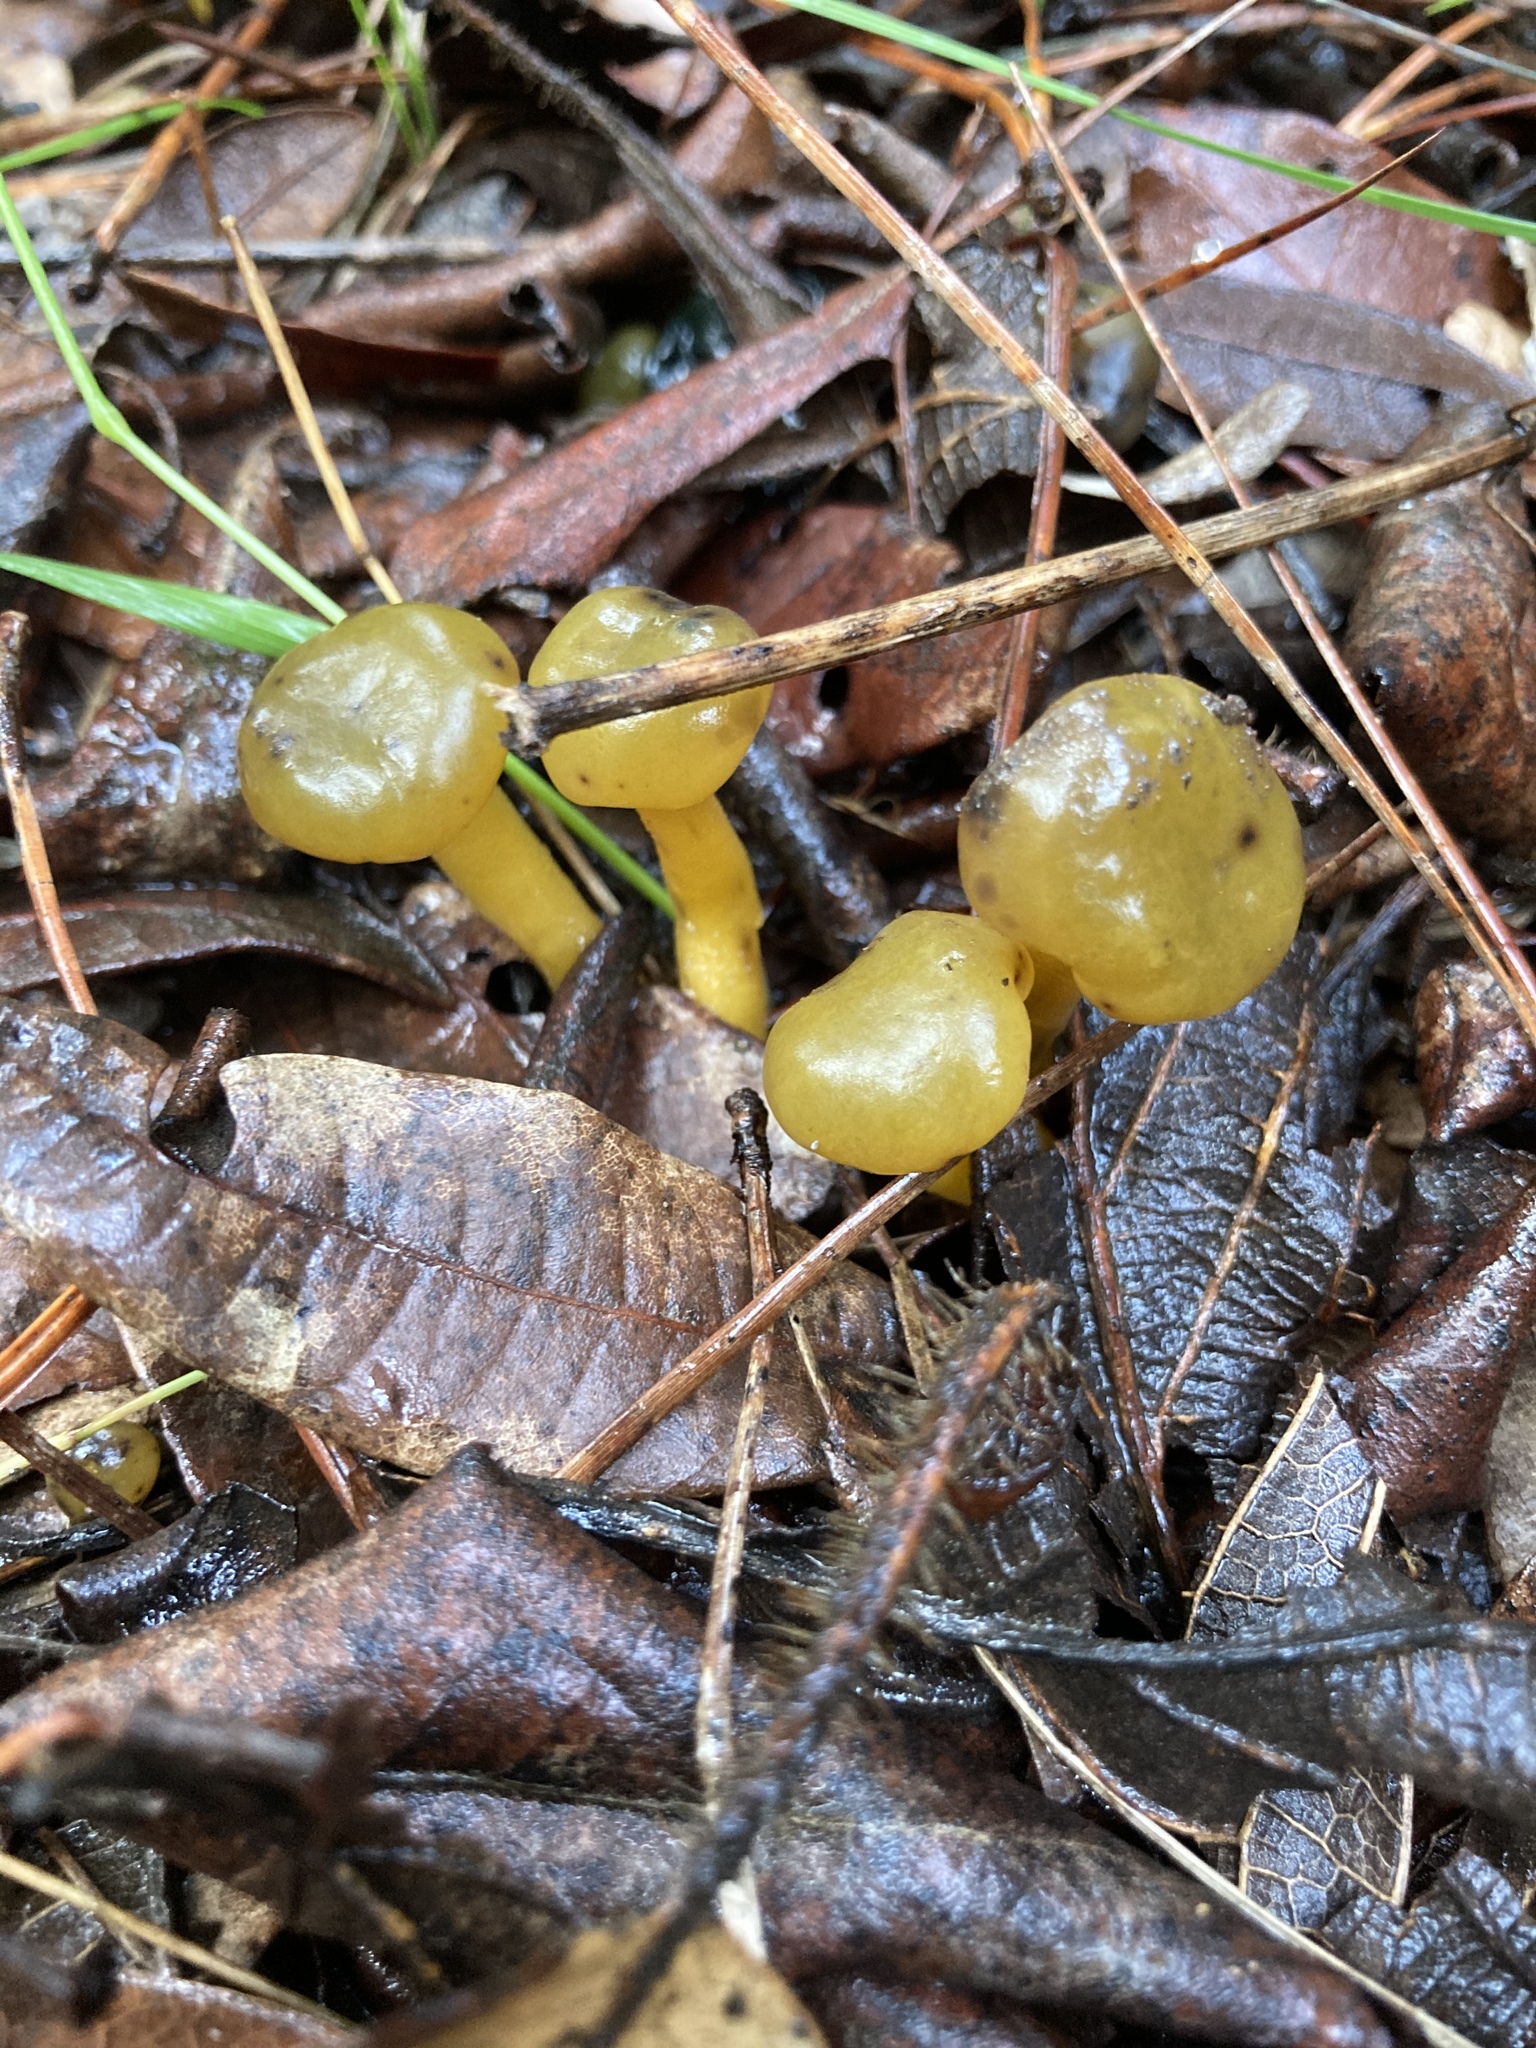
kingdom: Fungi
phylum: Ascomycota
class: Leotiomycetes
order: Leotiales
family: Leotiaceae
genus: Leotia
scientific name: Leotia lubrica
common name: Jellybaby
